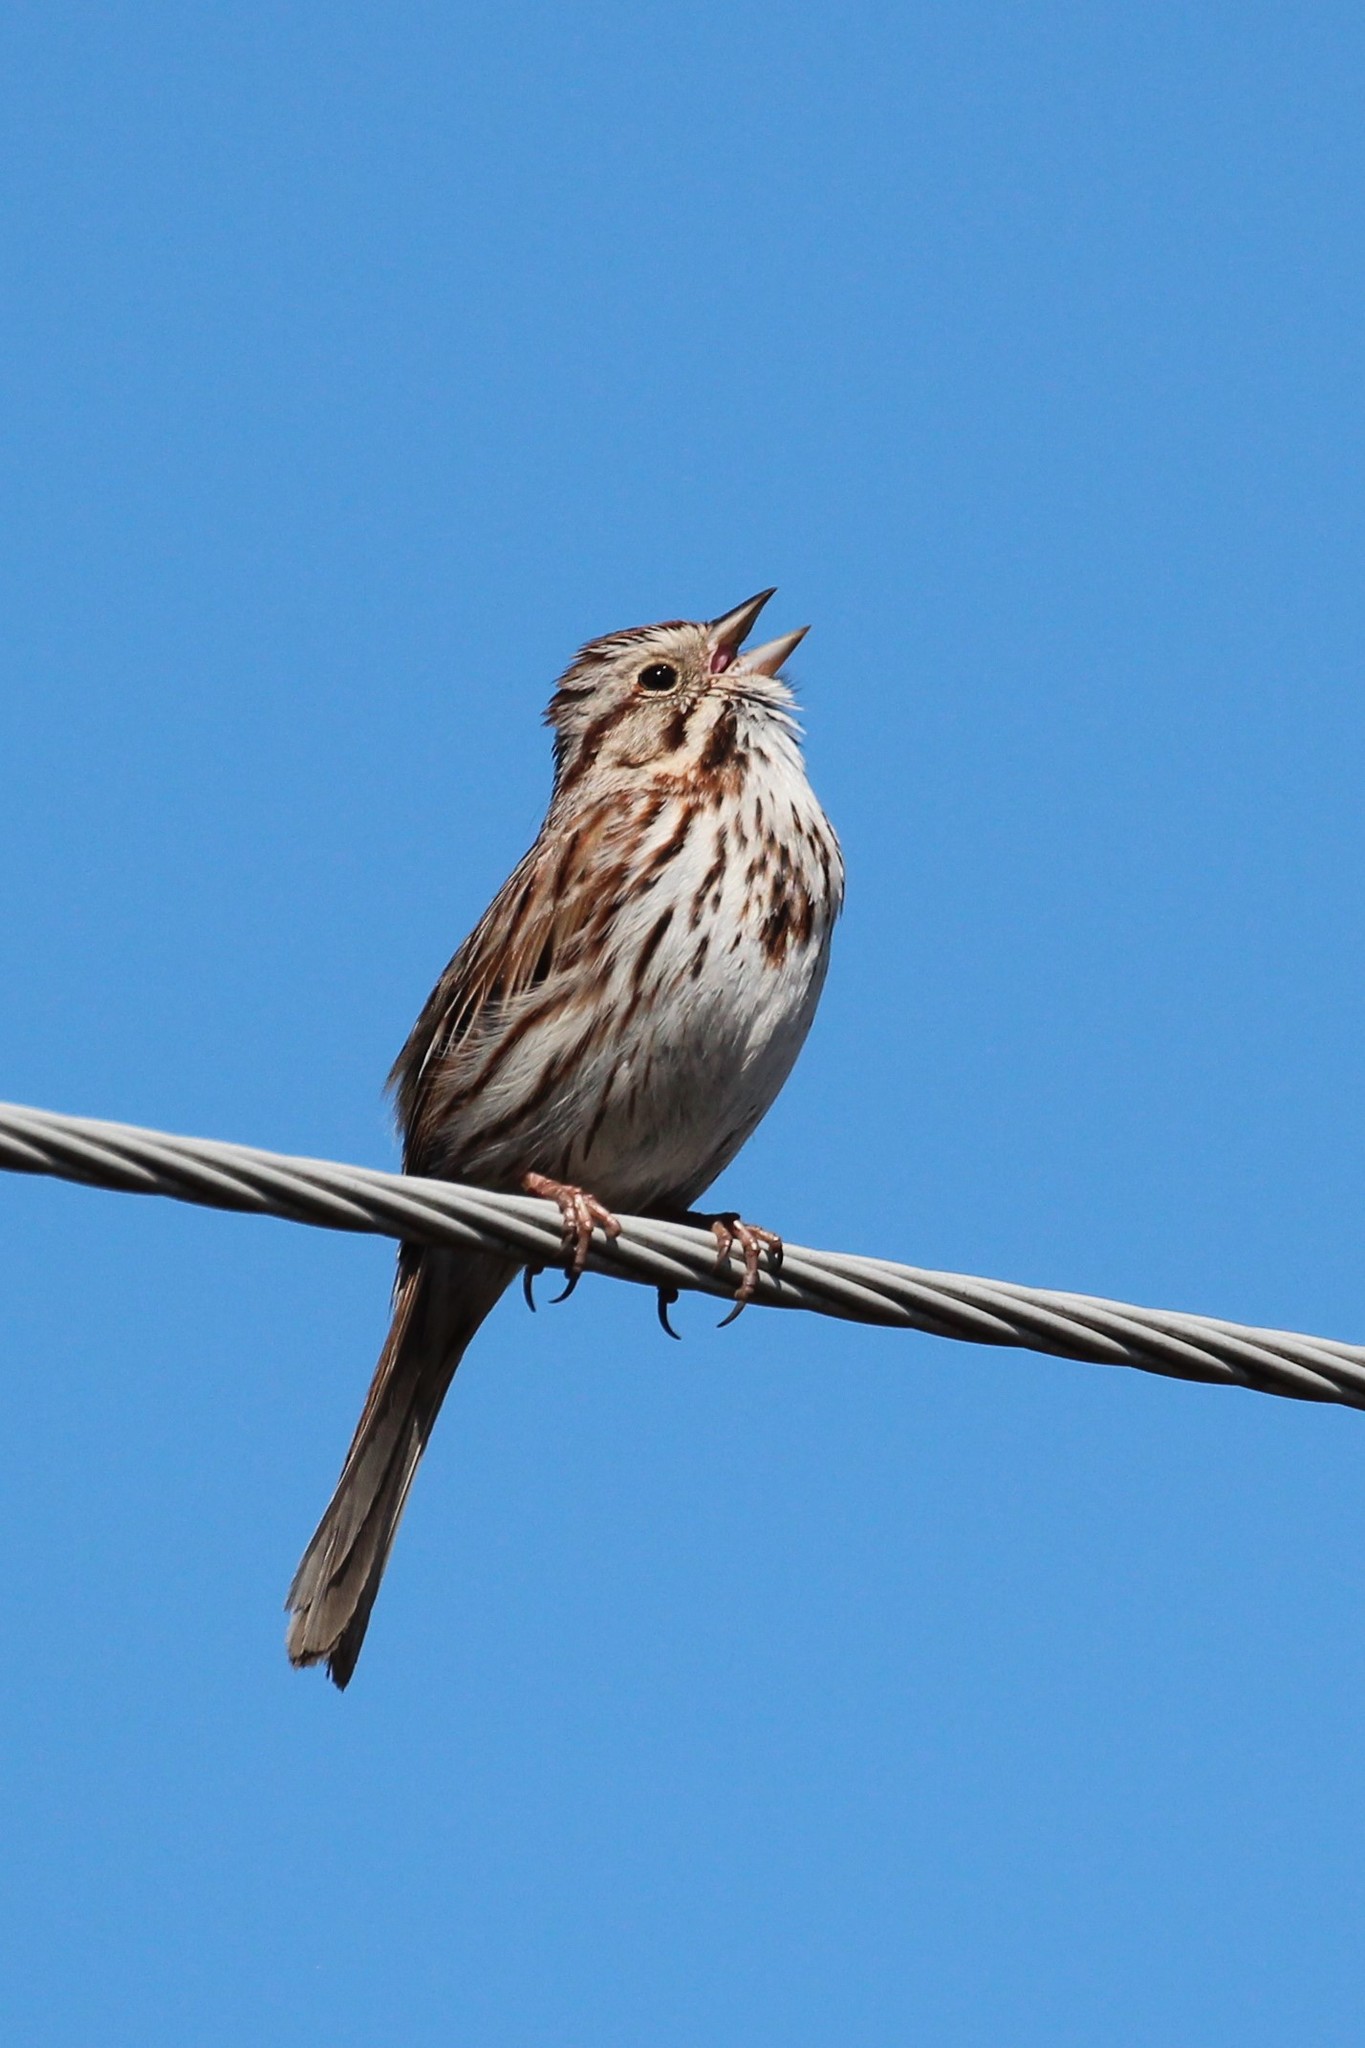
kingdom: Animalia
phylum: Chordata
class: Aves
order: Passeriformes
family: Passerellidae
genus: Melospiza
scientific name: Melospiza melodia
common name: Song sparrow
